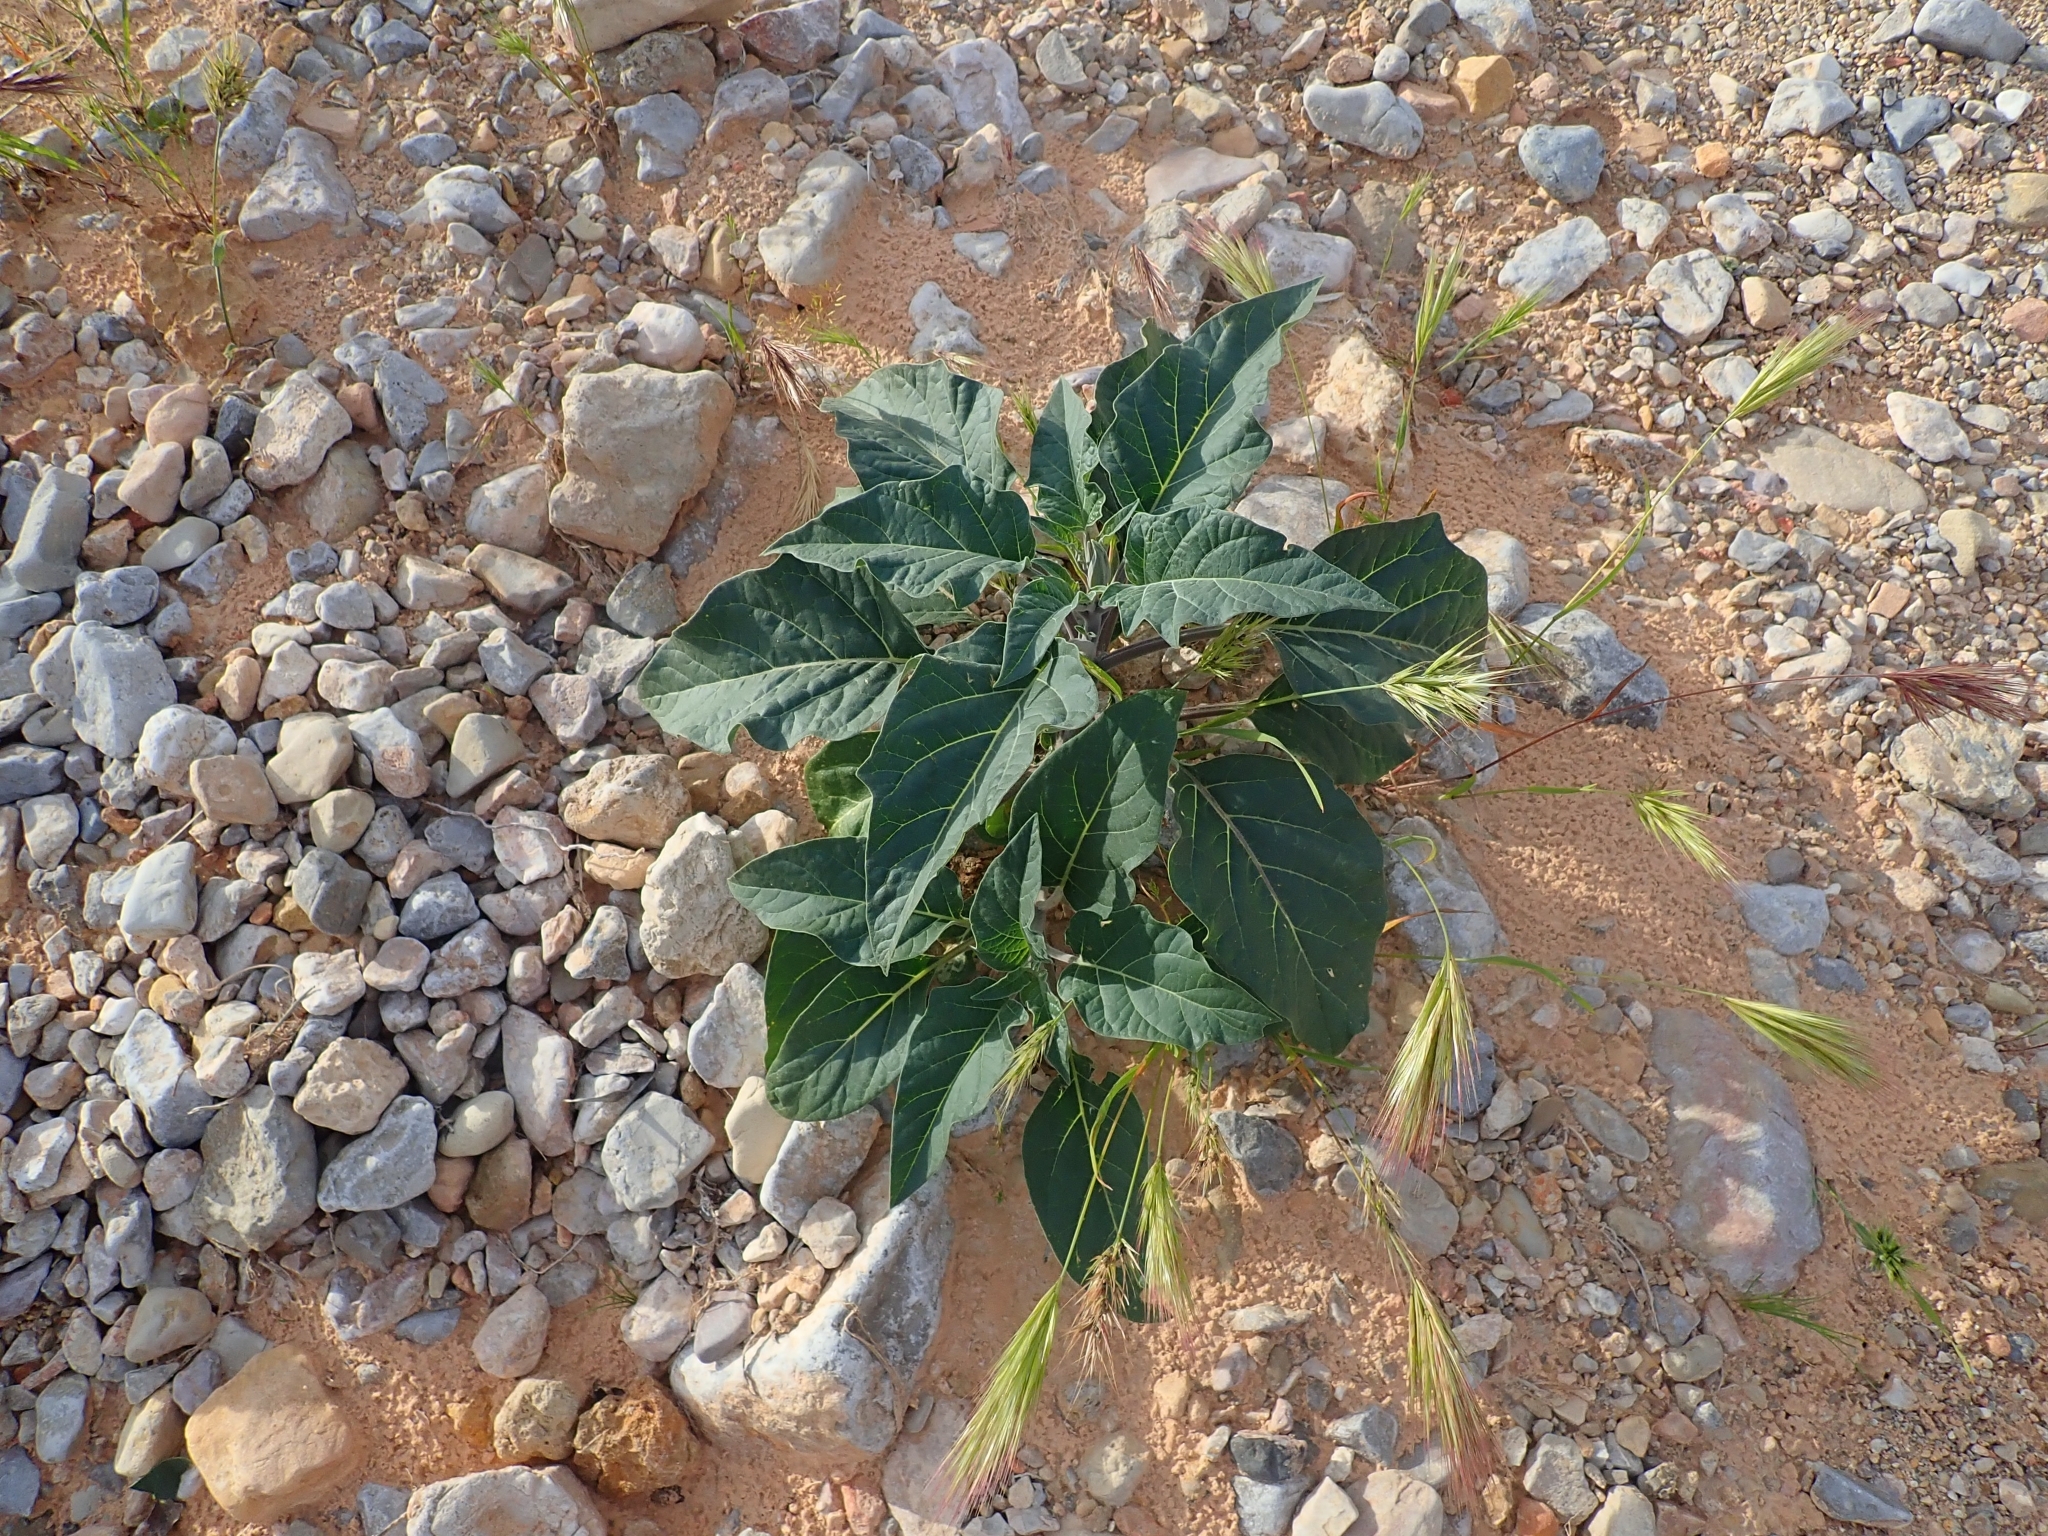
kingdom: Plantae
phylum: Tracheophyta
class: Magnoliopsida
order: Solanales
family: Solanaceae
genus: Datura
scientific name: Datura wrightii
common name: Sacred thorn-apple
